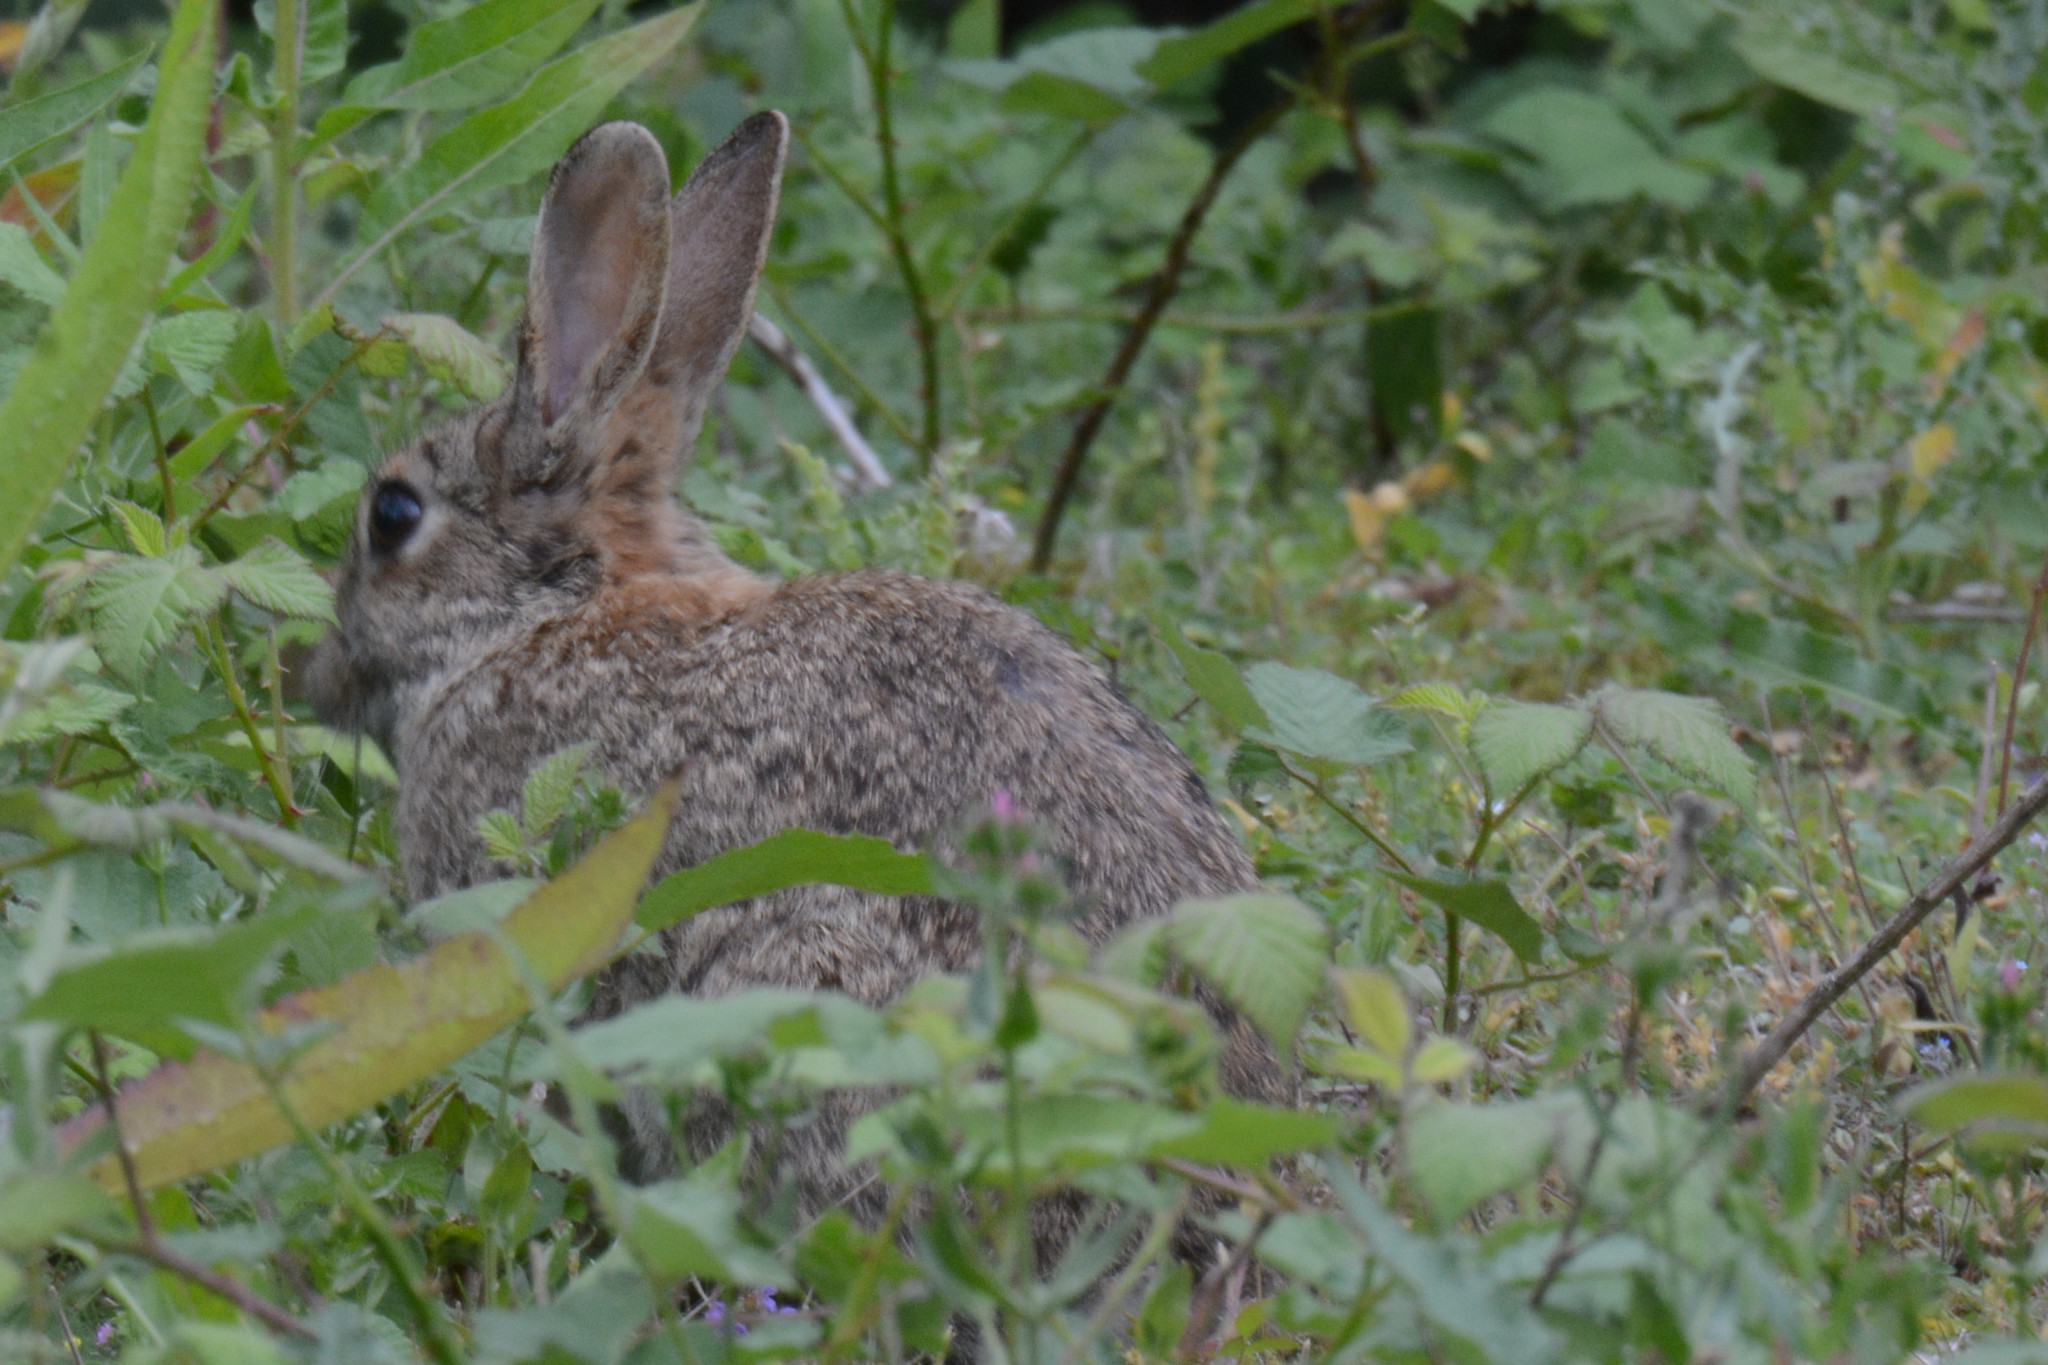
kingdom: Animalia
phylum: Chordata
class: Mammalia
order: Lagomorpha
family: Leporidae
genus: Oryctolagus
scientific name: Oryctolagus cuniculus
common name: European rabbit
